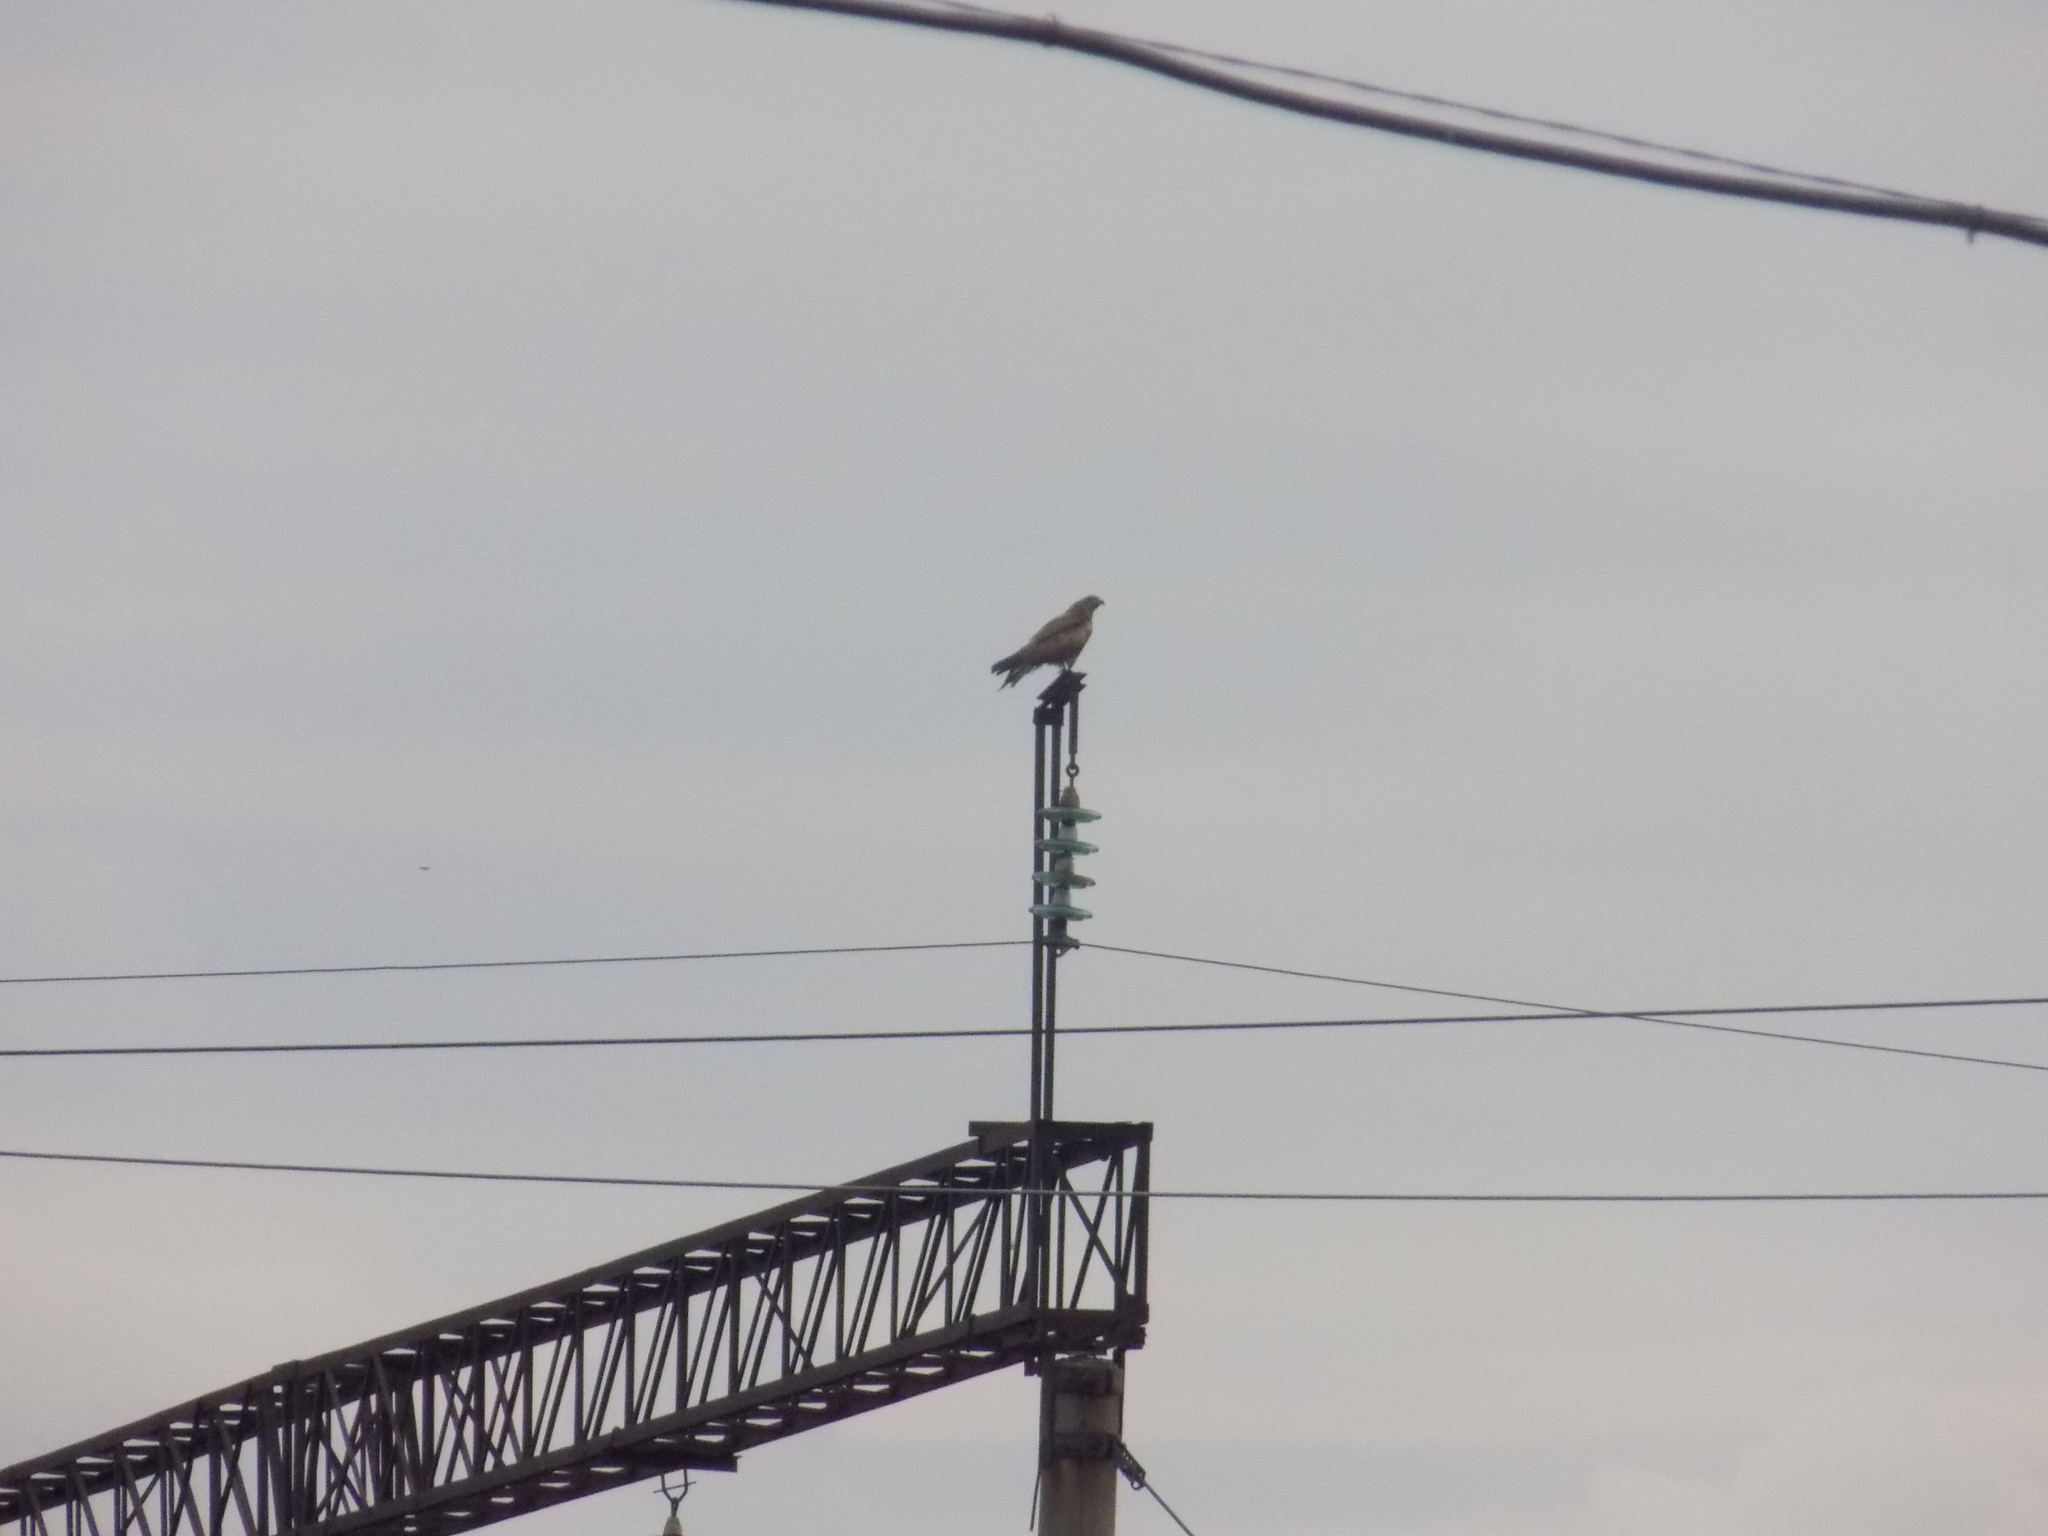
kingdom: Animalia
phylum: Chordata
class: Aves
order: Accipitriformes
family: Accipitridae
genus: Milvus
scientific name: Milvus migrans
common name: Black kite
